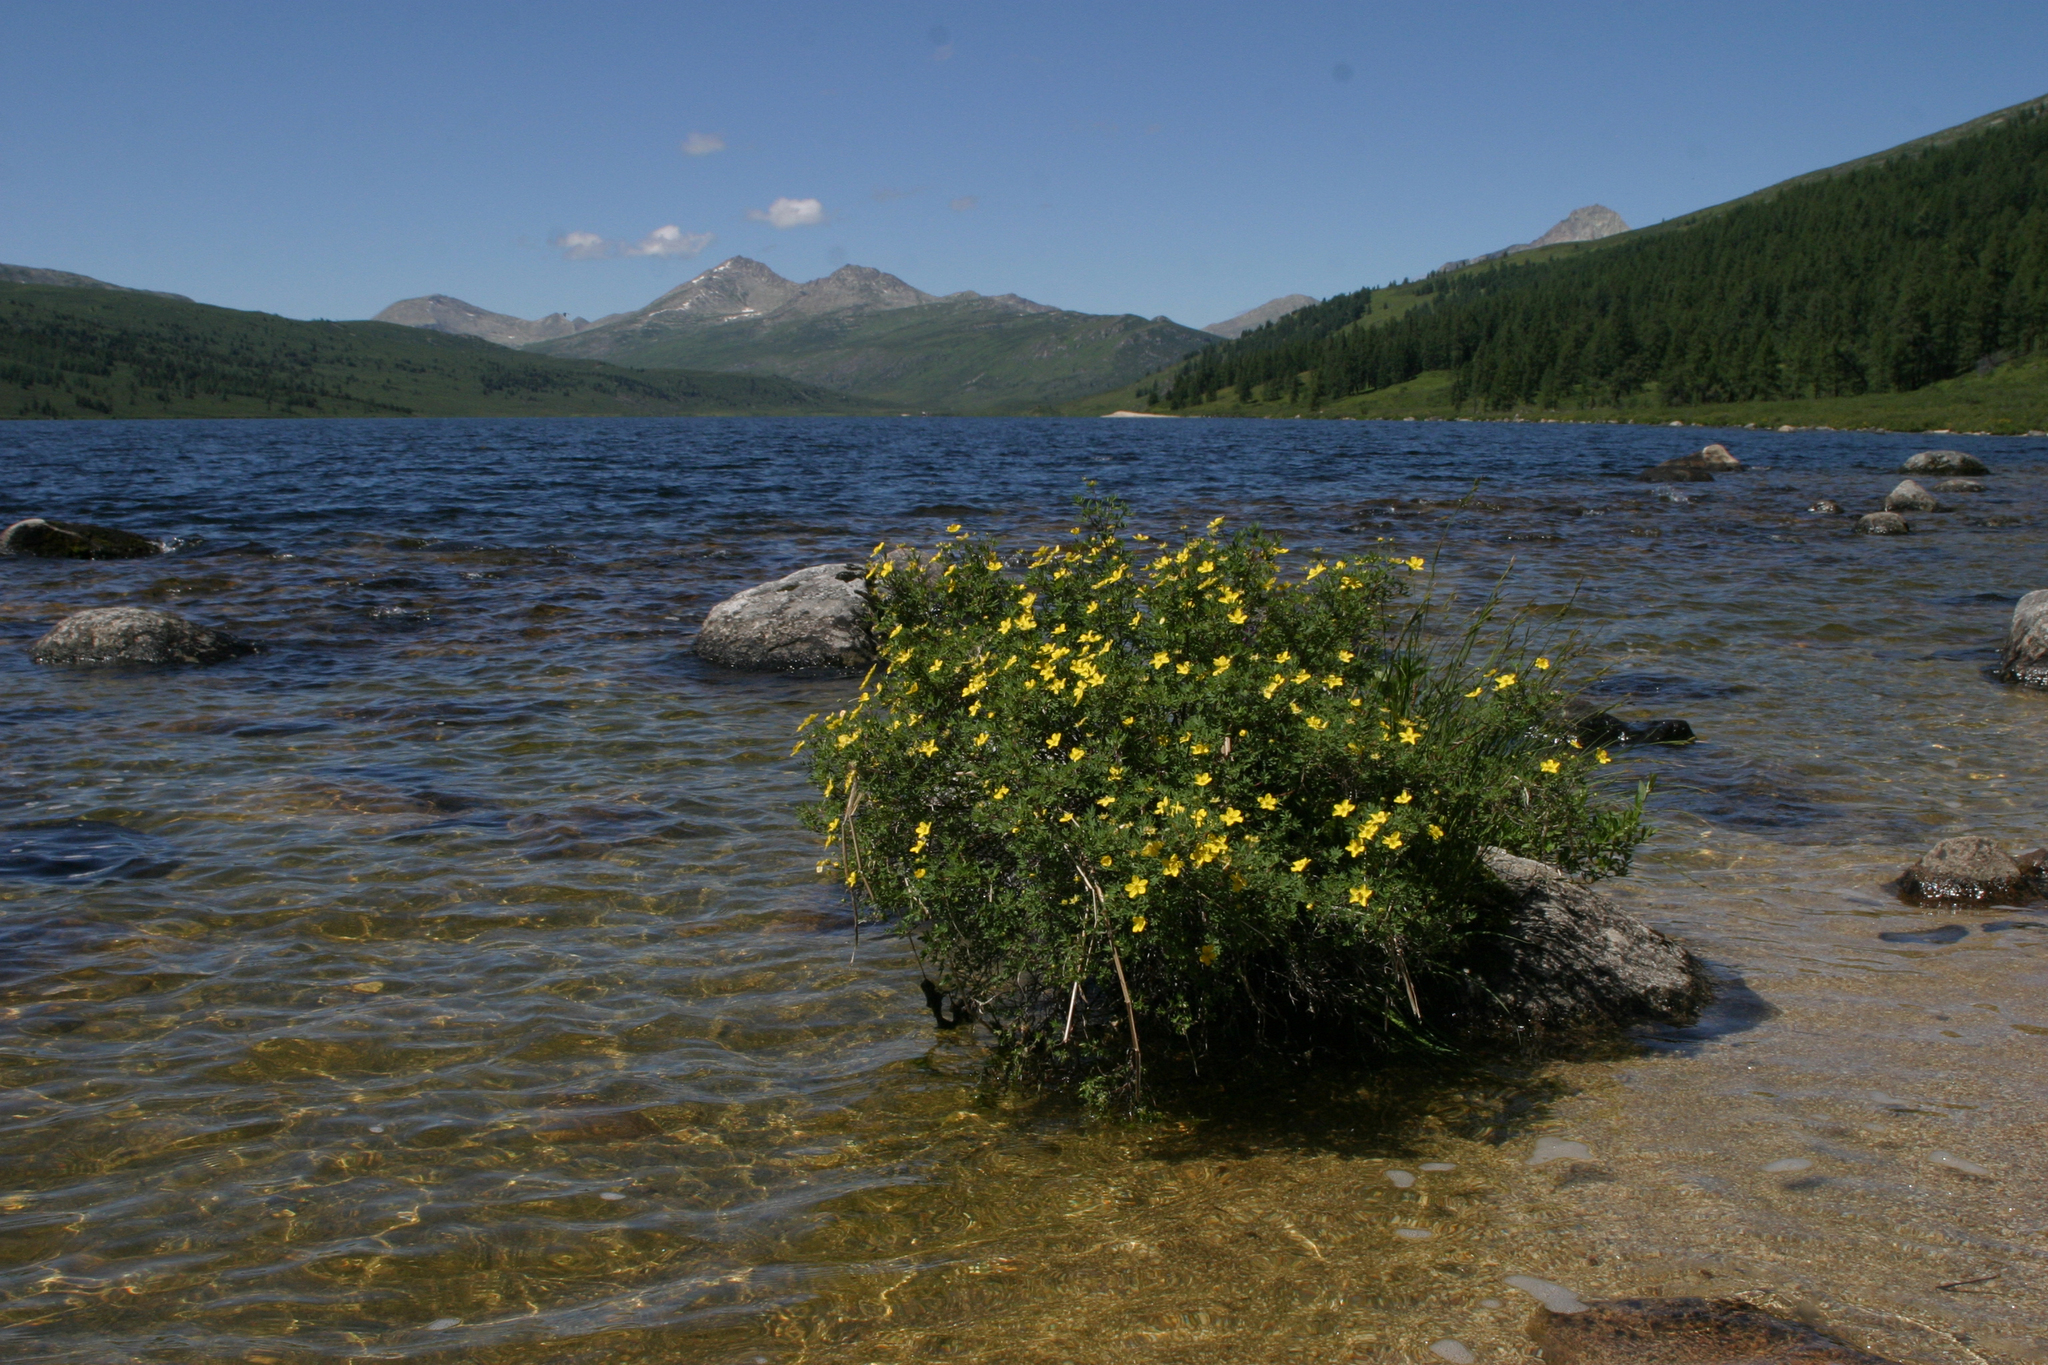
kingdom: Plantae
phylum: Tracheophyta
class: Magnoliopsida
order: Rosales
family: Rosaceae
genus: Dasiphora
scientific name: Dasiphora fruticosa
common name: Shrubby cinquefoil
